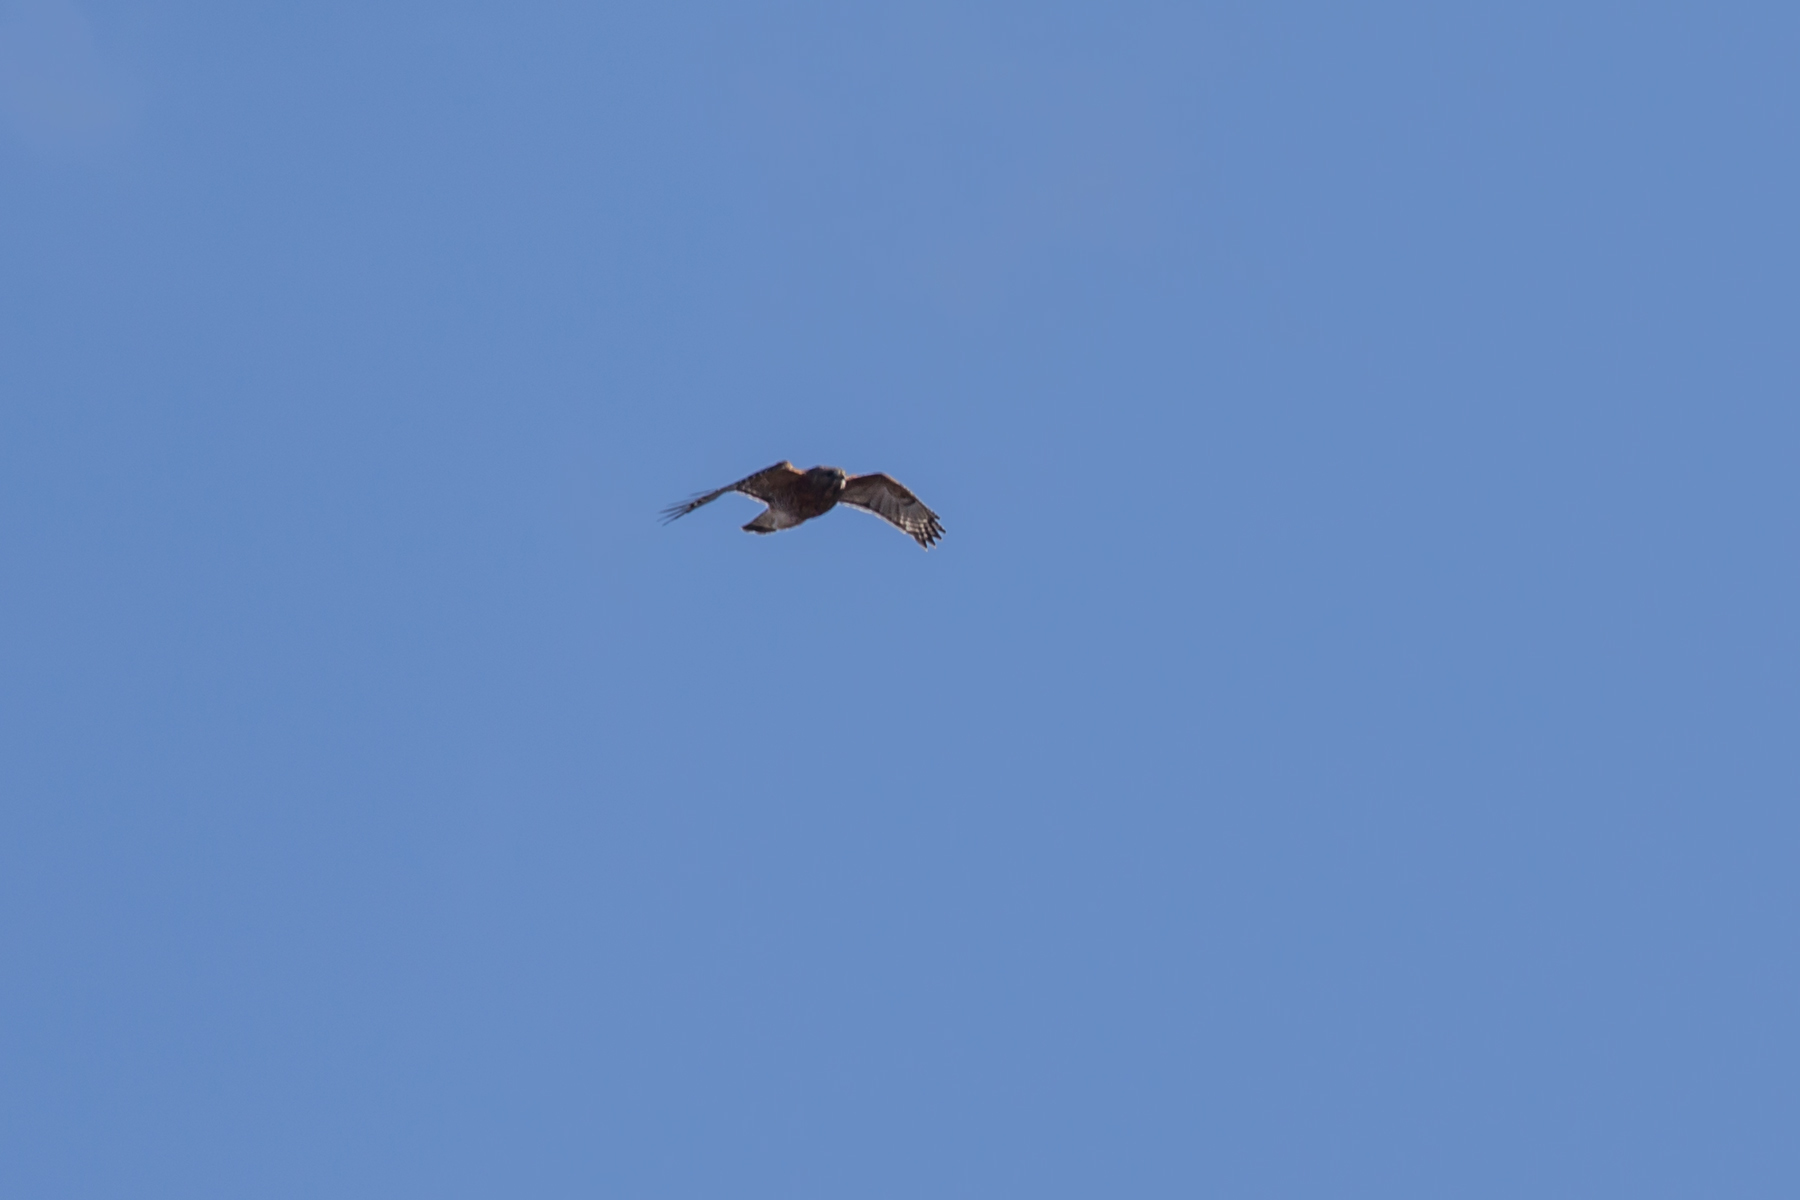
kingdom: Animalia
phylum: Chordata
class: Aves
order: Accipitriformes
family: Accipitridae
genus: Buteo
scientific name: Buteo lineatus
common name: Red-shouldered hawk
